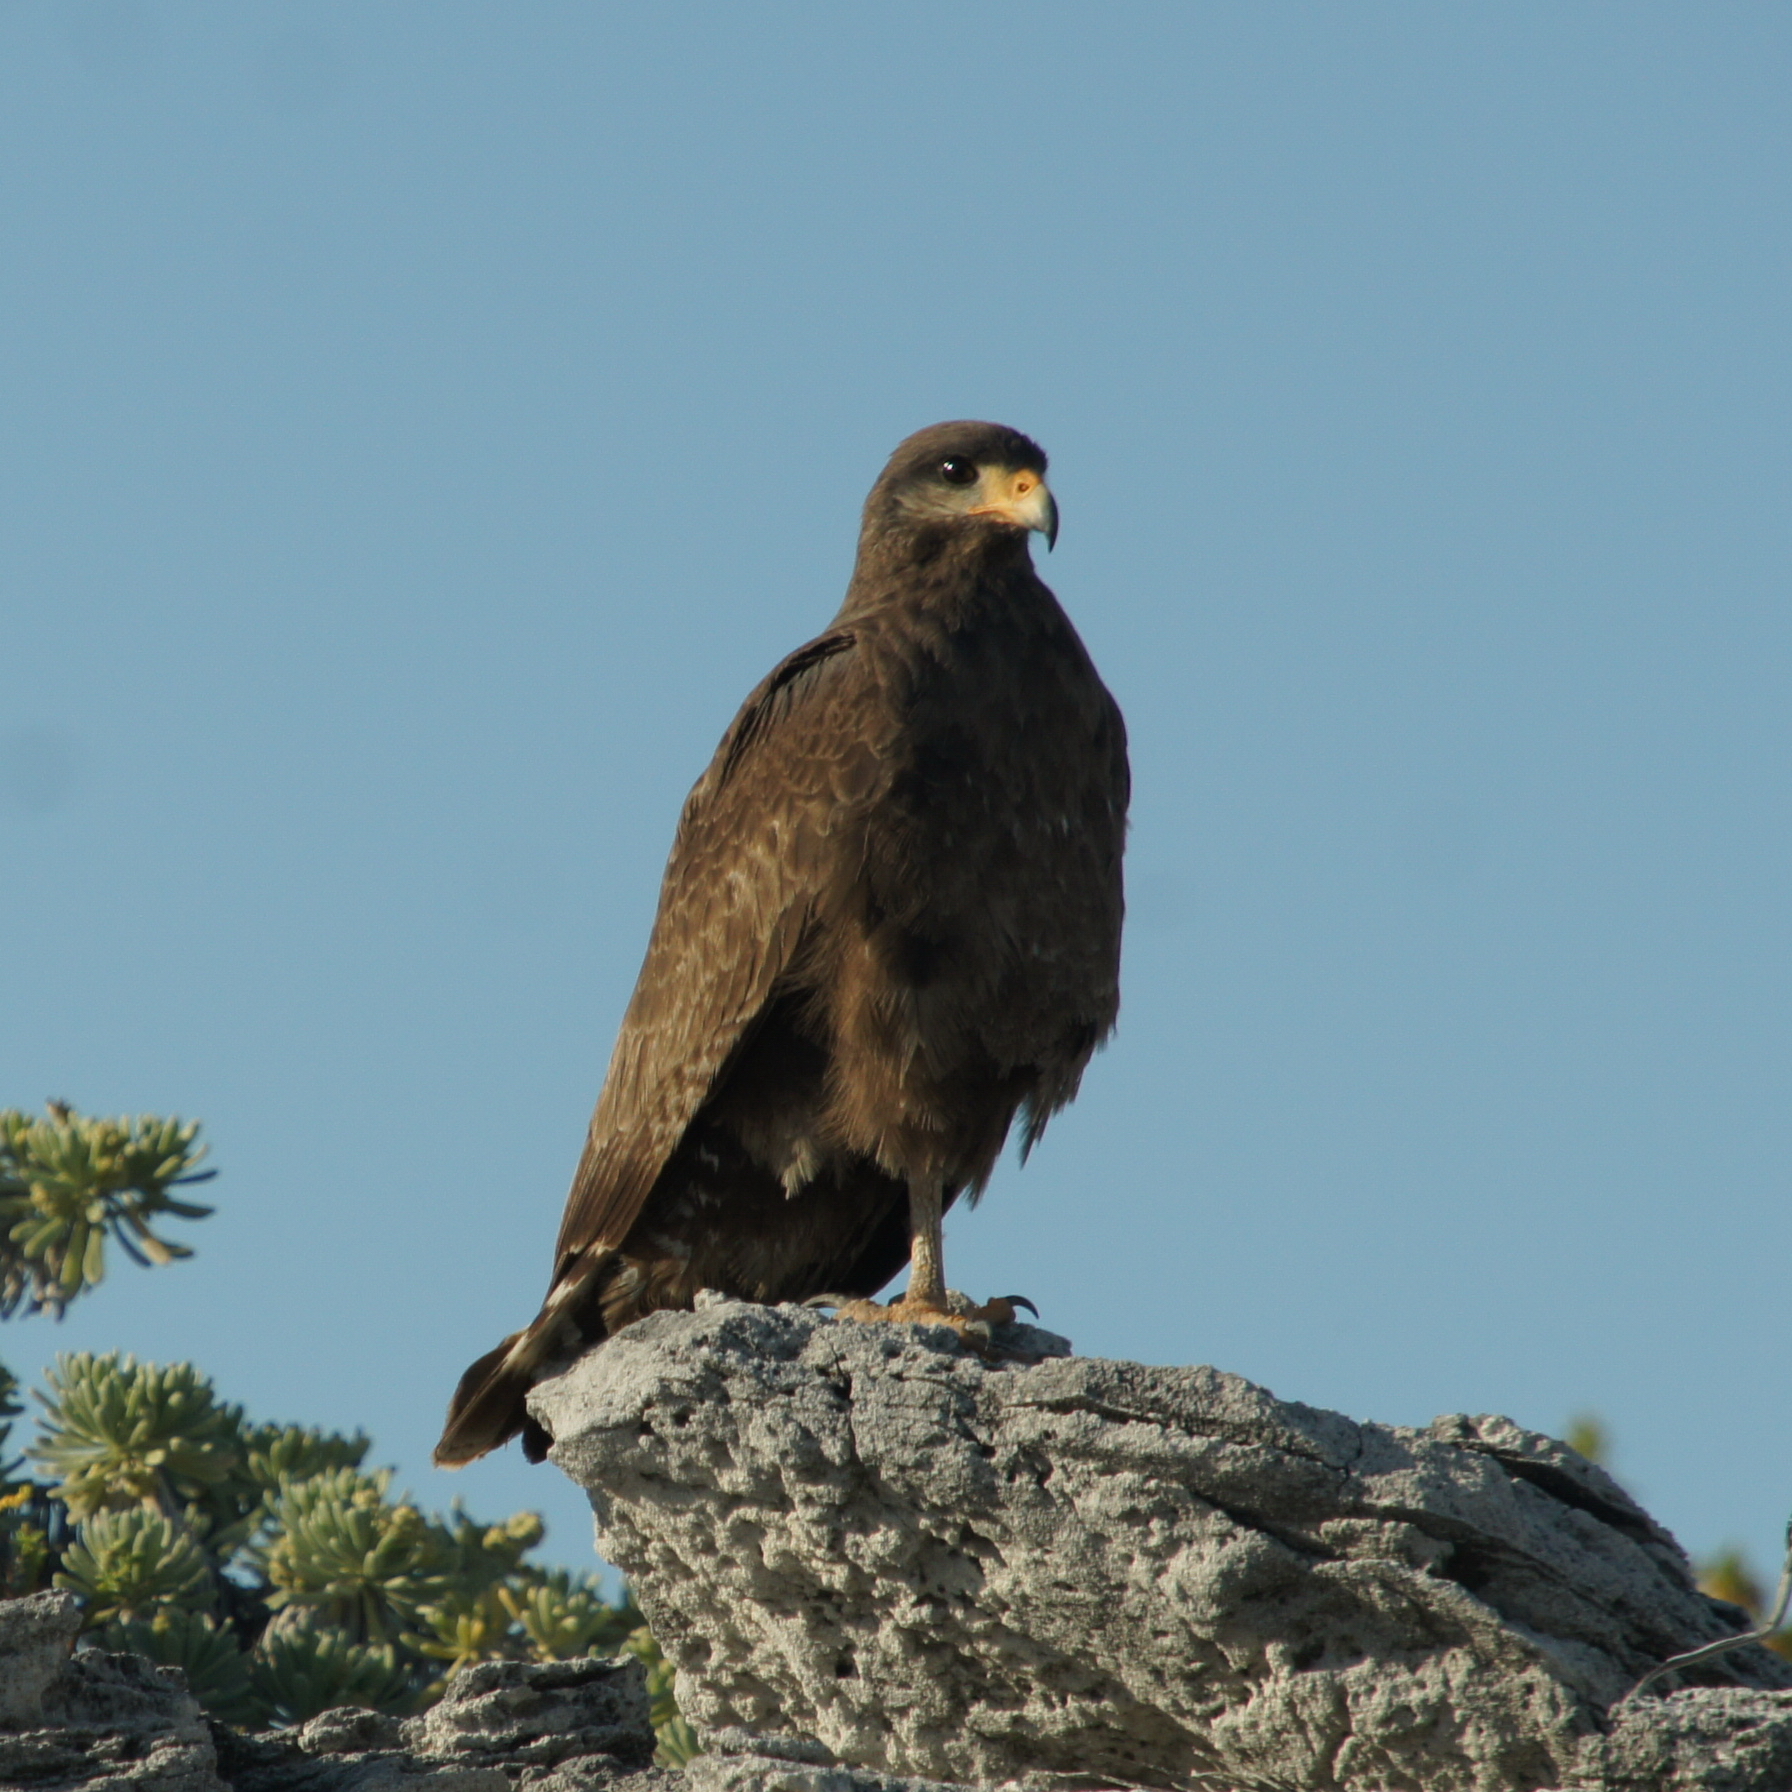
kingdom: Animalia
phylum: Chordata
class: Aves
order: Accipitriformes
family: Accipitridae
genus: Buteogallus
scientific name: Buteogallus gundlachii
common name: Cuban black hawk
